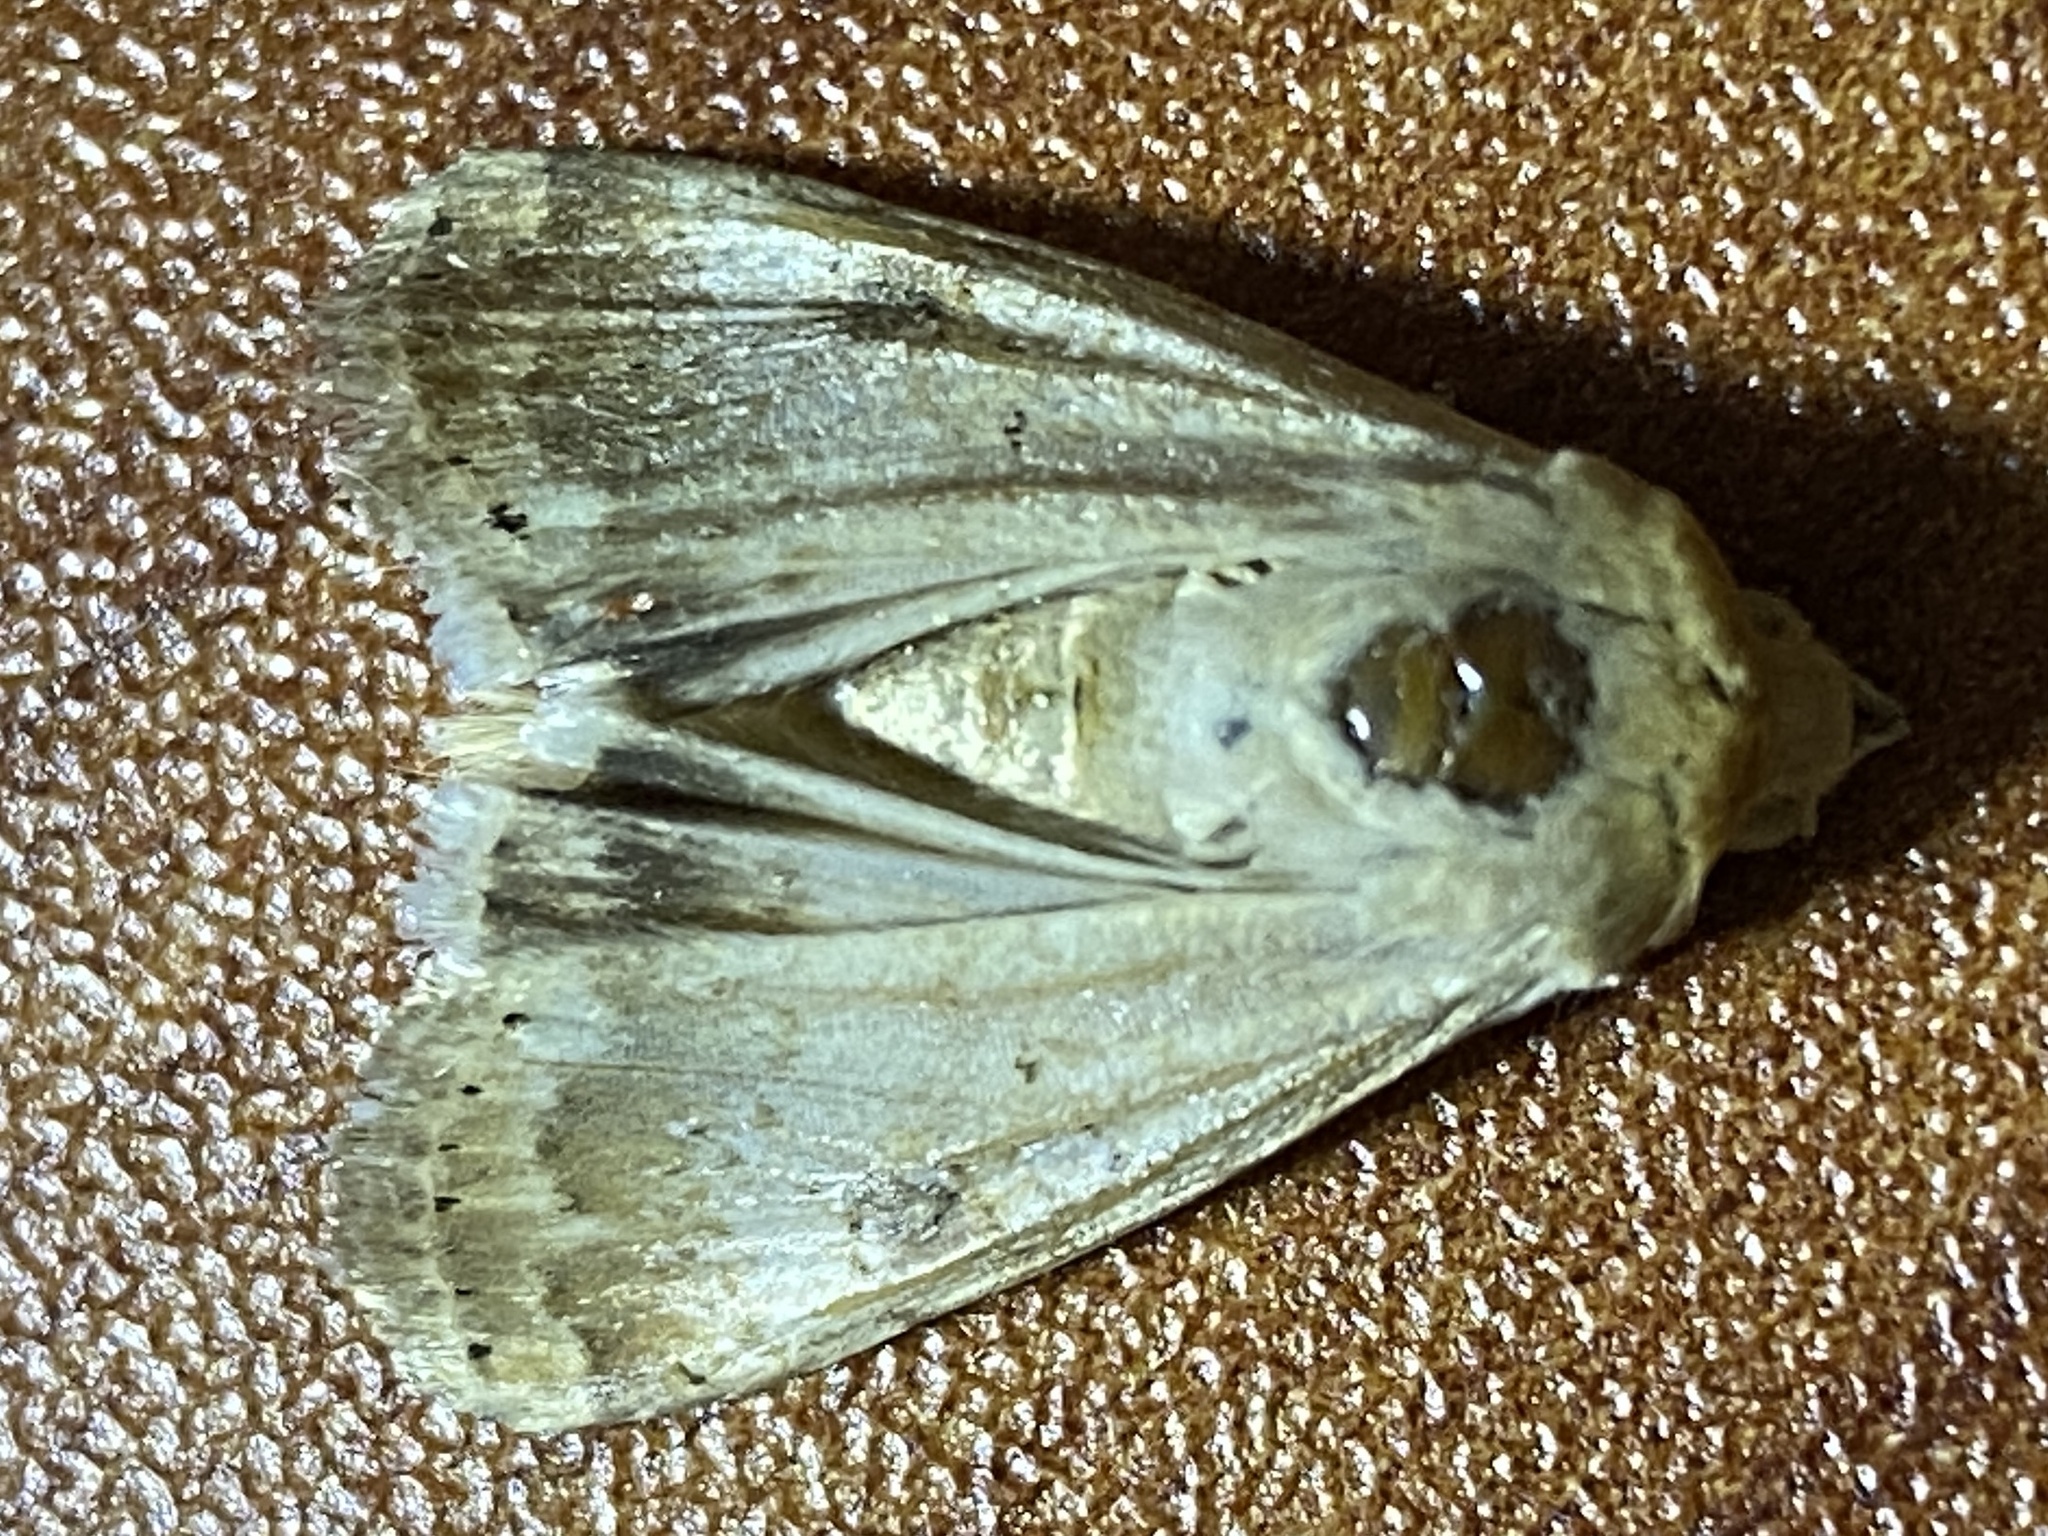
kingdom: Animalia
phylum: Arthropoda
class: Insecta
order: Lepidoptera
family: Noctuidae
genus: Heliothis
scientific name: Heliothis nubigera
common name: Eastern bordered straw
